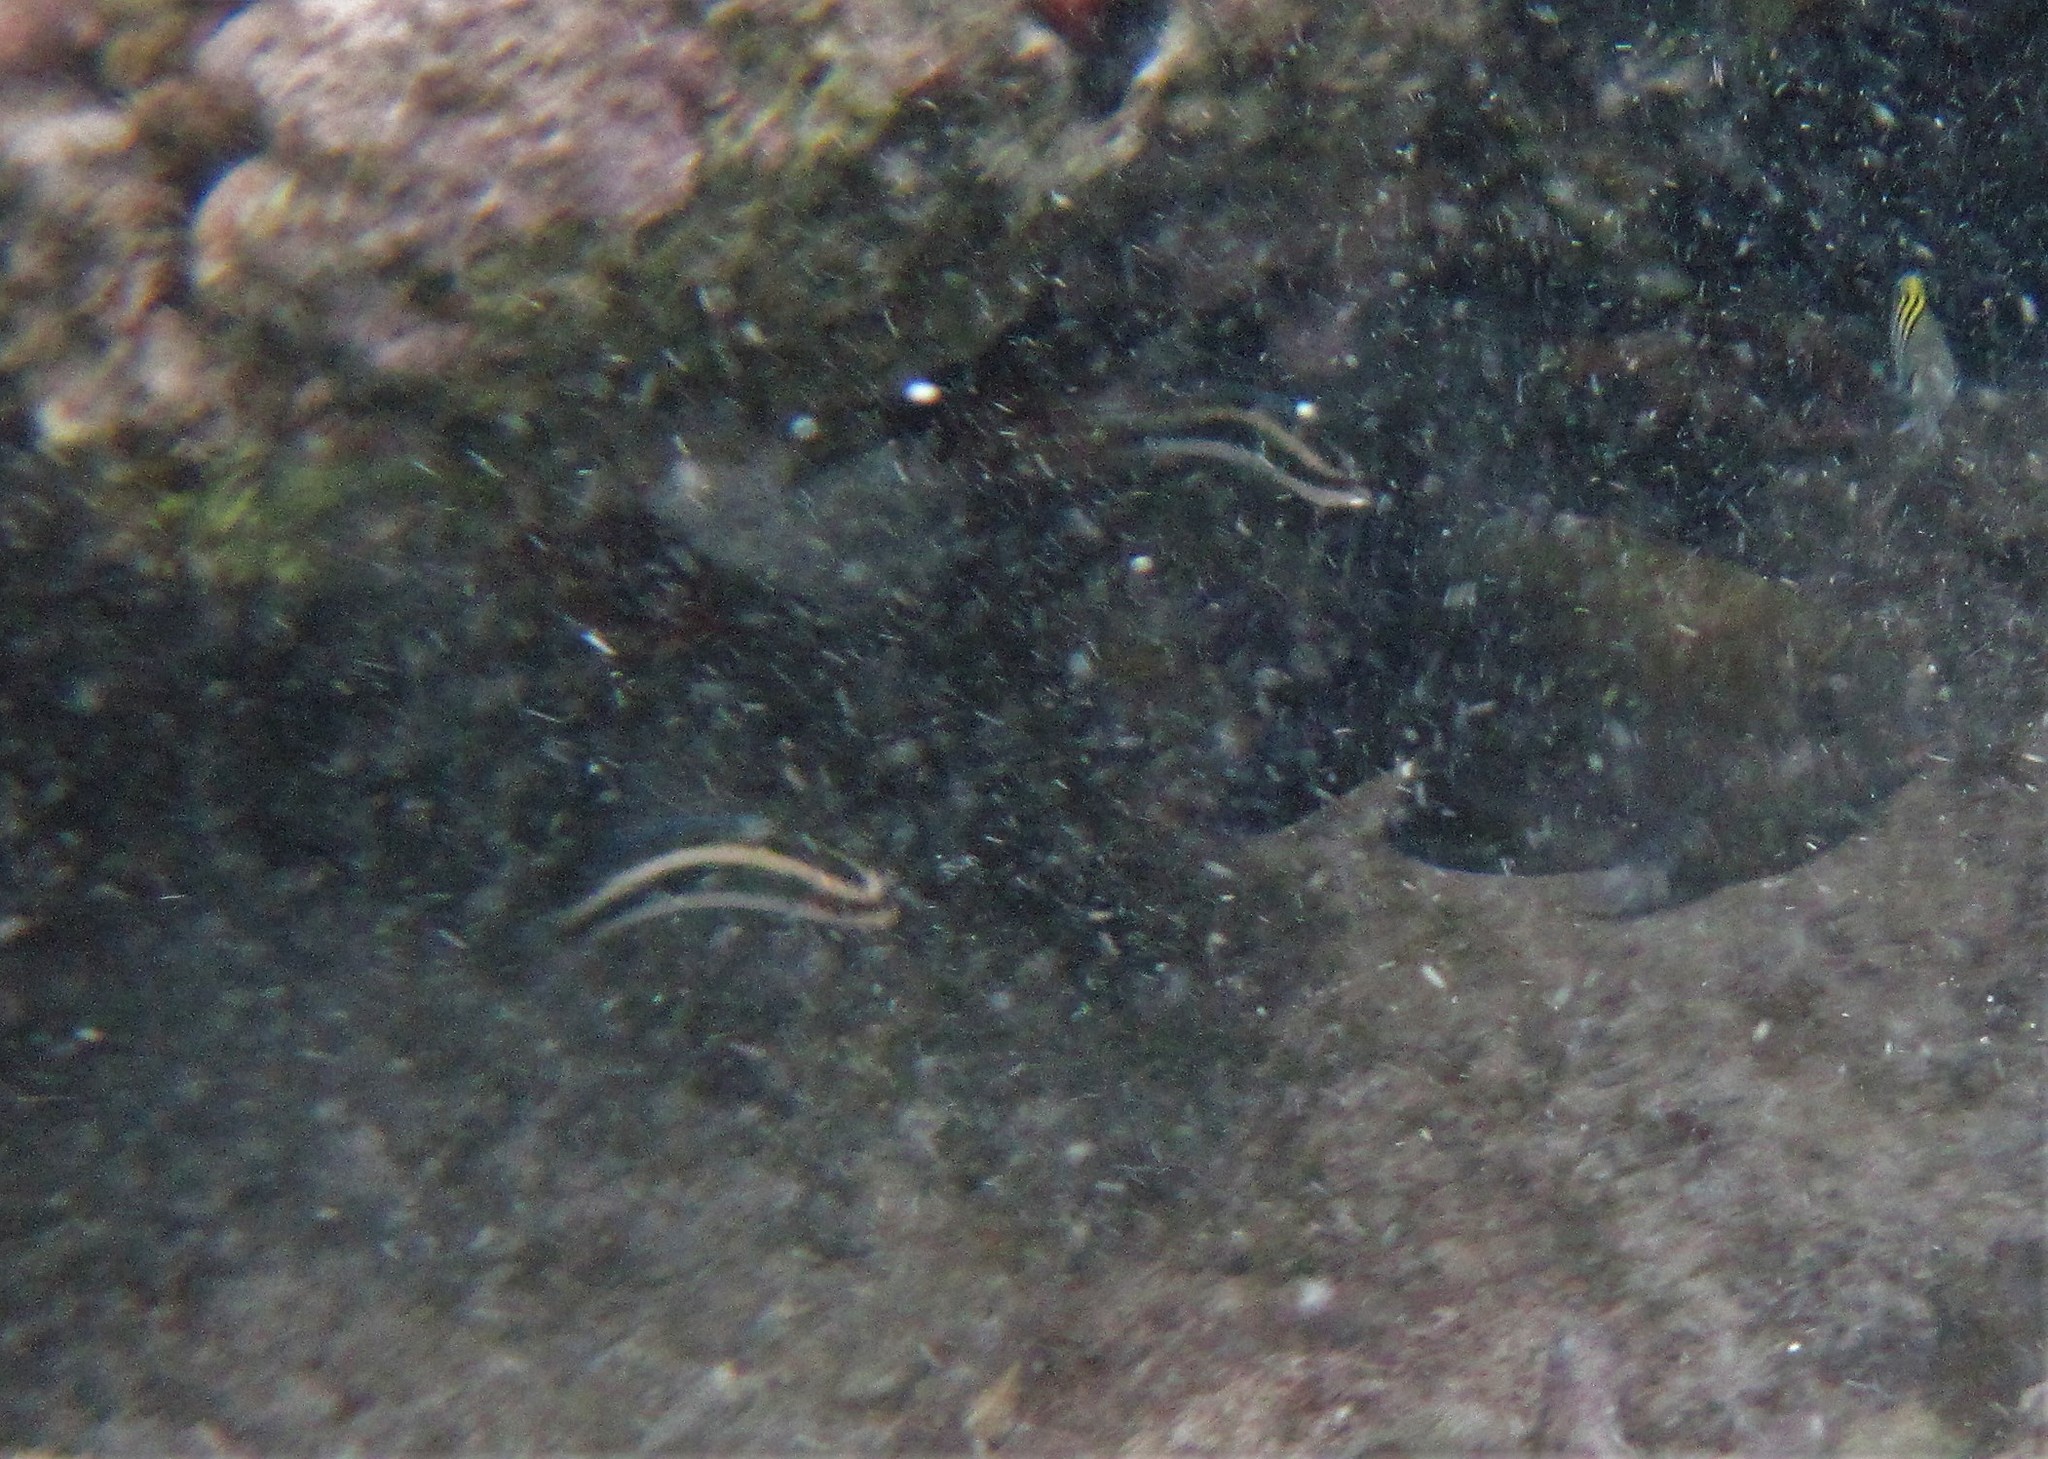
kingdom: Animalia
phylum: Chordata
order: Perciformes
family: Labridae
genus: Thalassoma
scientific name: Thalassoma bifasciatum
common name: Bluehead wrasse
